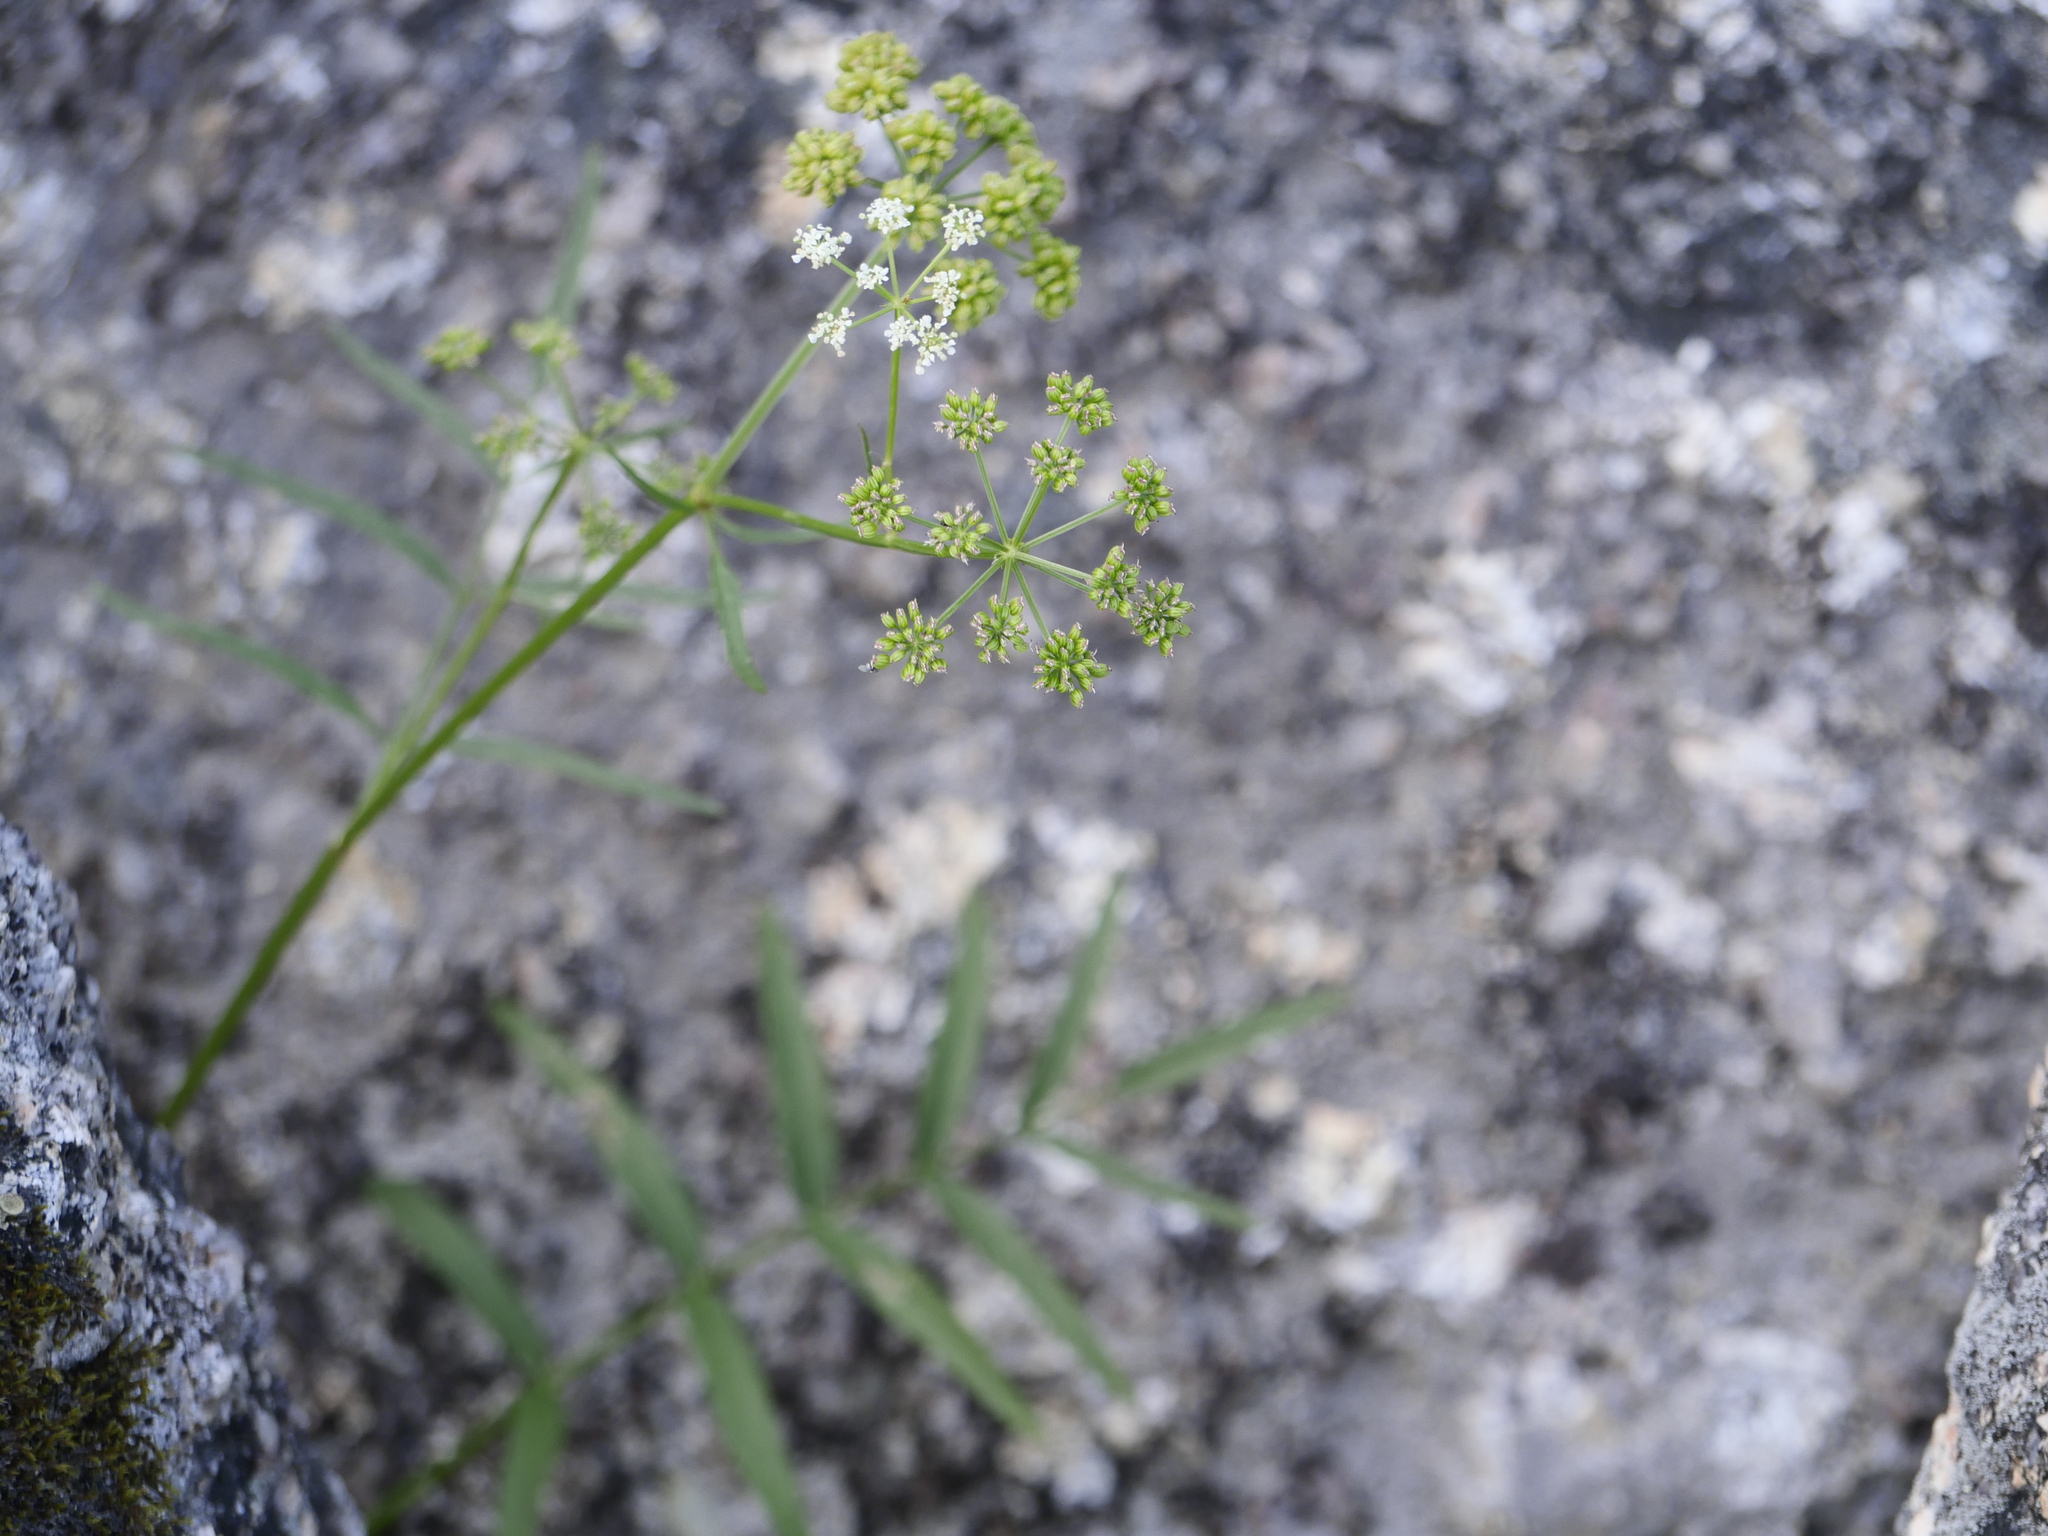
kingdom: Plantae
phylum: Tracheophyta
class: Magnoliopsida
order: Apiales
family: Apiaceae
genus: Sium
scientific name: Sium suave
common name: Hemlock water-parsnip
